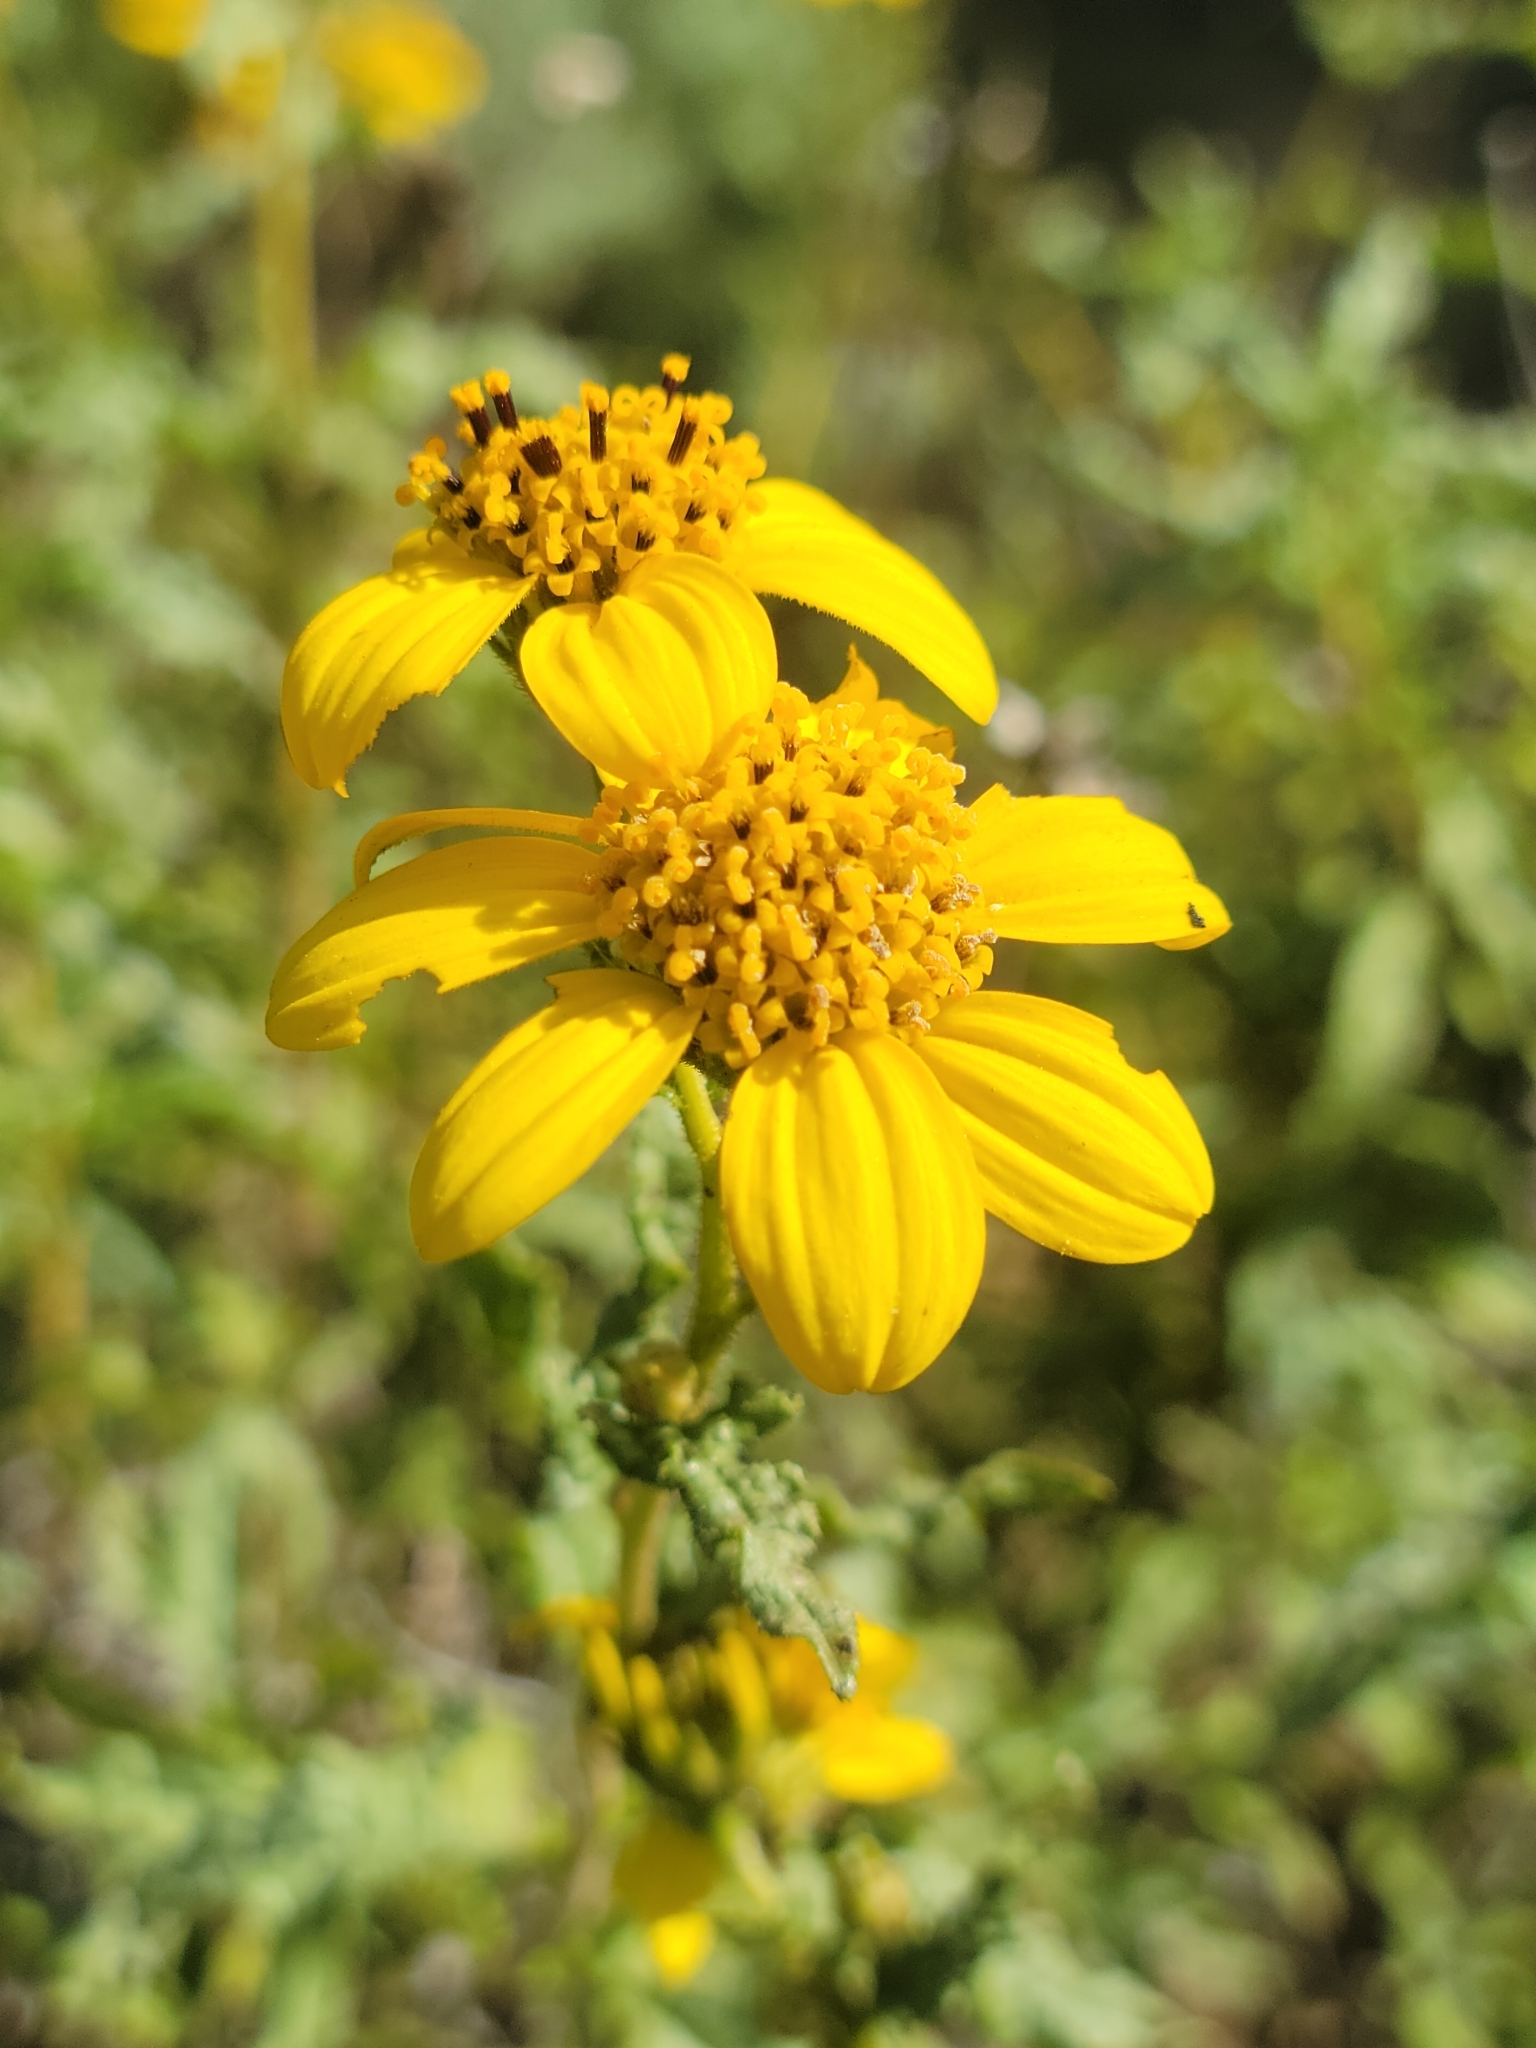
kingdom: Plantae
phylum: Tracheophyta
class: Magnoliopsida
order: Asterales
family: Asteraceae
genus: Bahiopsis
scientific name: Bahiopsis laciniata
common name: San diego county viguiera
